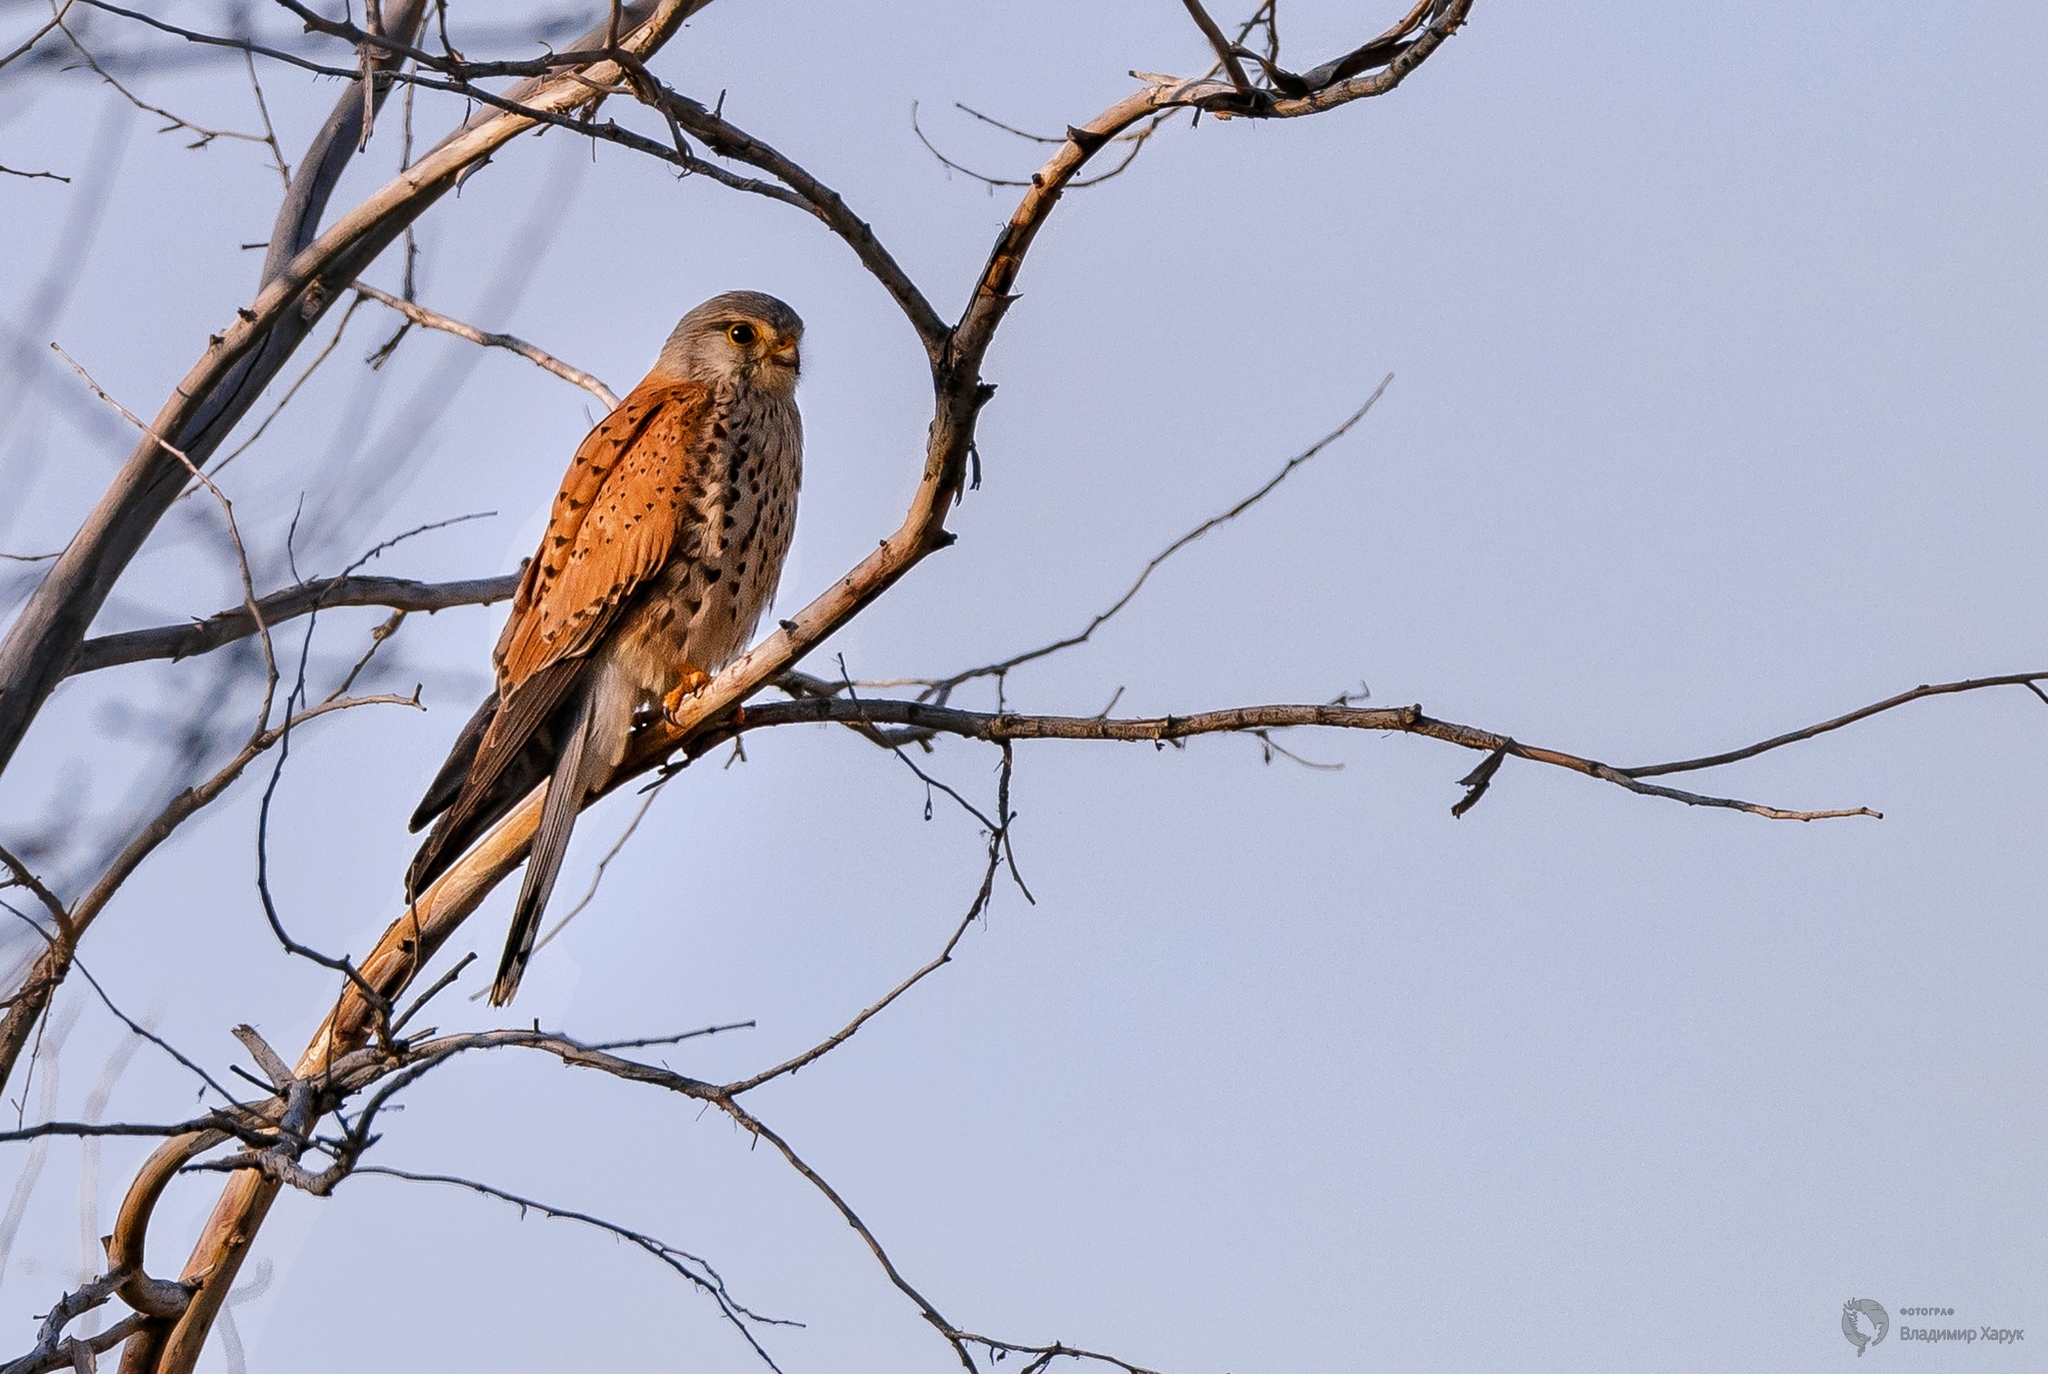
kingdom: Animalia
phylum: Chordata
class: Aves
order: Falconiformes
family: Falconidae
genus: Falco
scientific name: Falco tinnunculus
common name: Common kestrel
